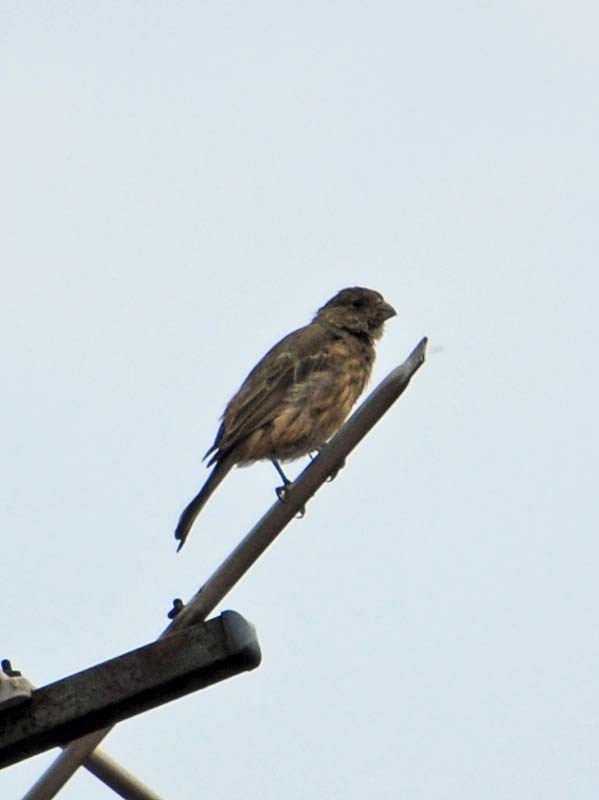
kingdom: Animalia
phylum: Chordata
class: Aves
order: Passeriformes
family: Passeridae
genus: Passer
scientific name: Passer domesticus
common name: House sparrow
